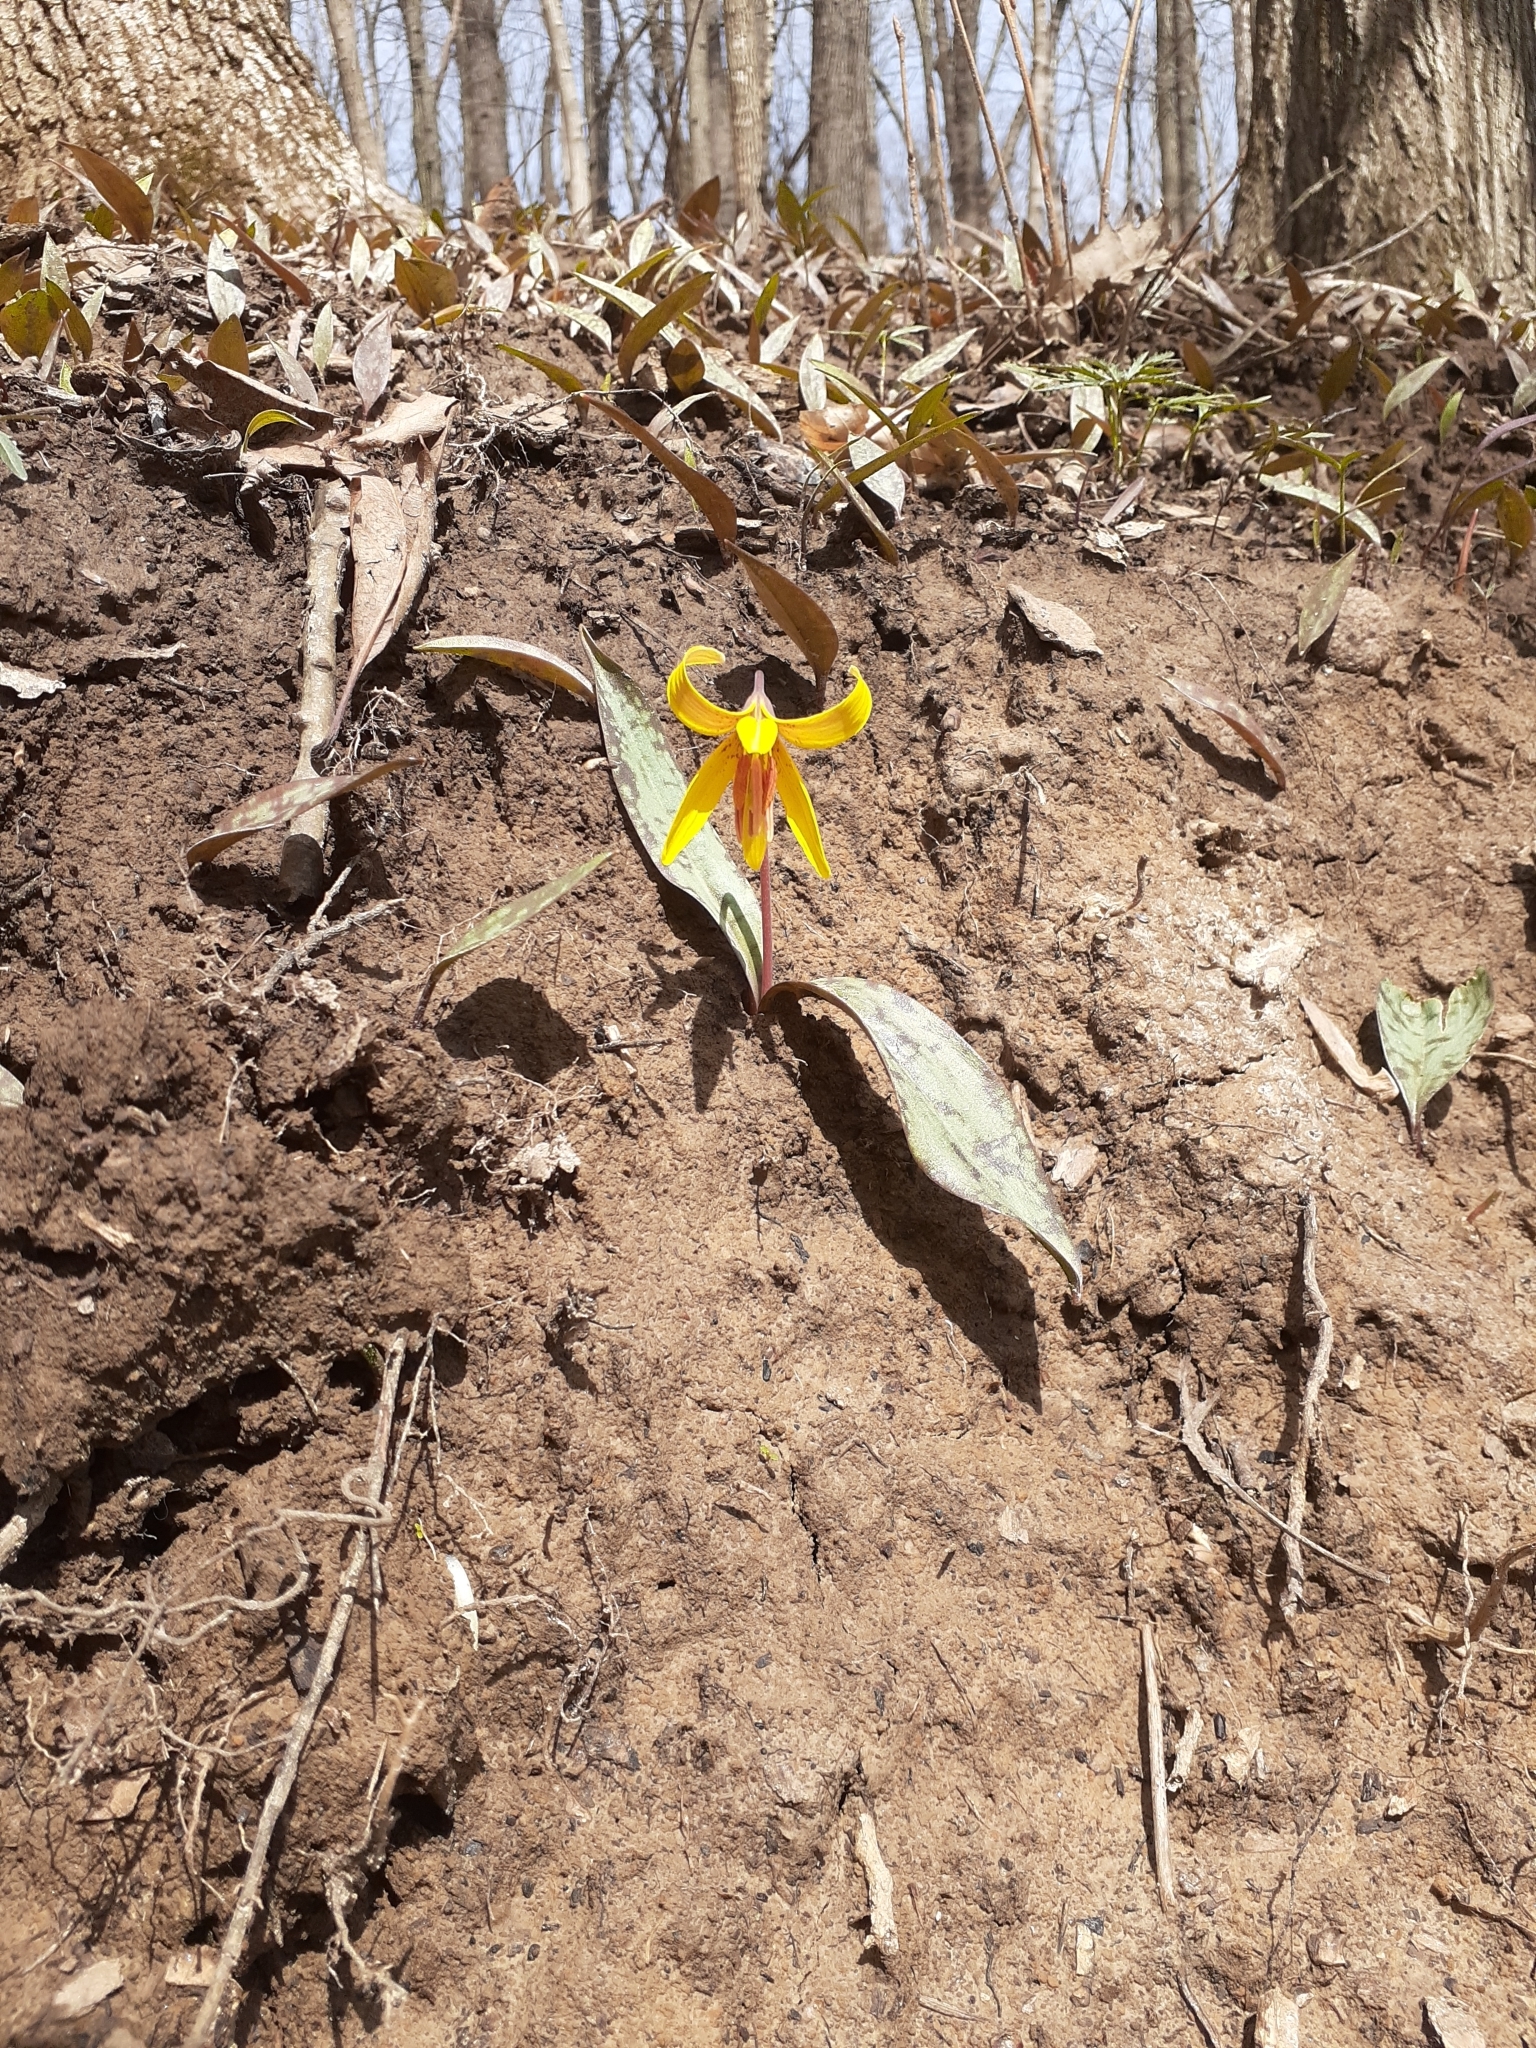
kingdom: Plantae
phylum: Tracheophyta
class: Liliopsida
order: Liliales
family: Liliaceae
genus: Erythronium
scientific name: Erythronium americanum
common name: Yellow adder's-tongue
